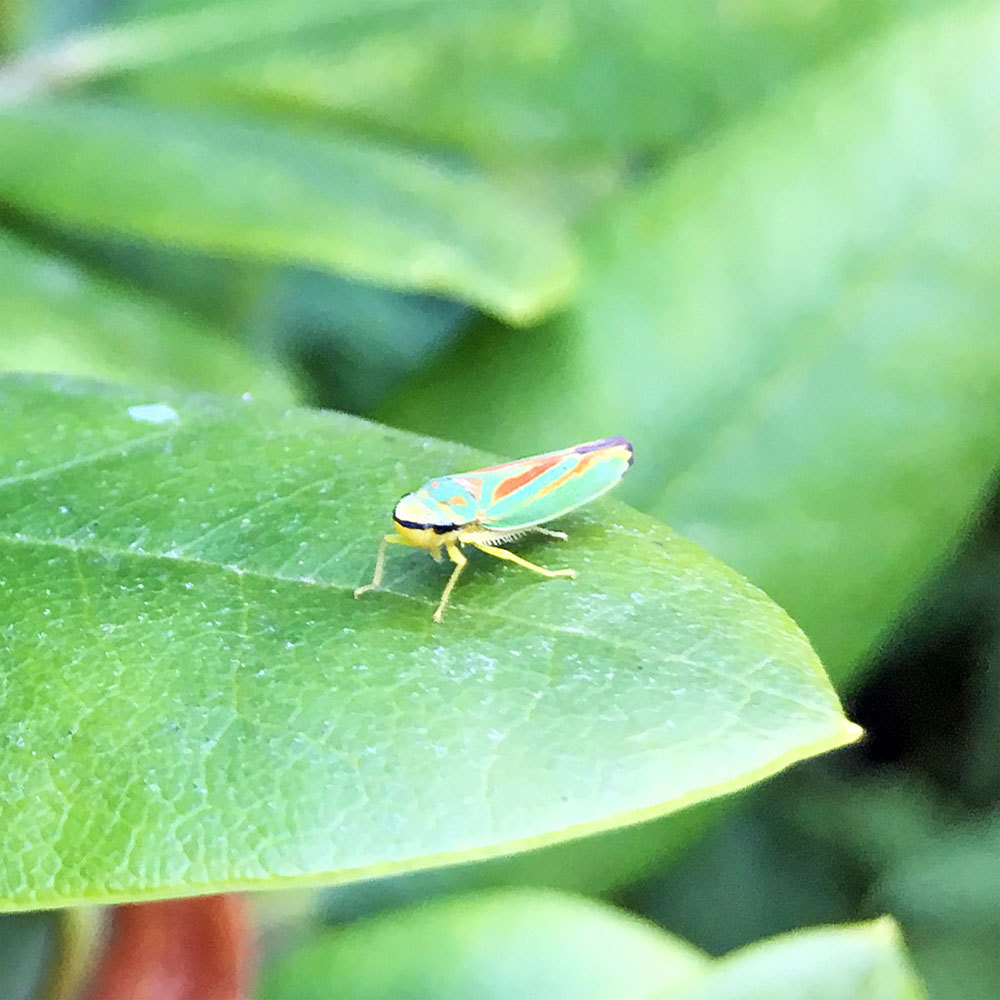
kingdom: Animalia
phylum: Arthropoda
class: Insecta
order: Hemiptera
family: Cicadellidae
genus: Graphocephala
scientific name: Graphocephala fennahi
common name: Rhododendron leafhopper
